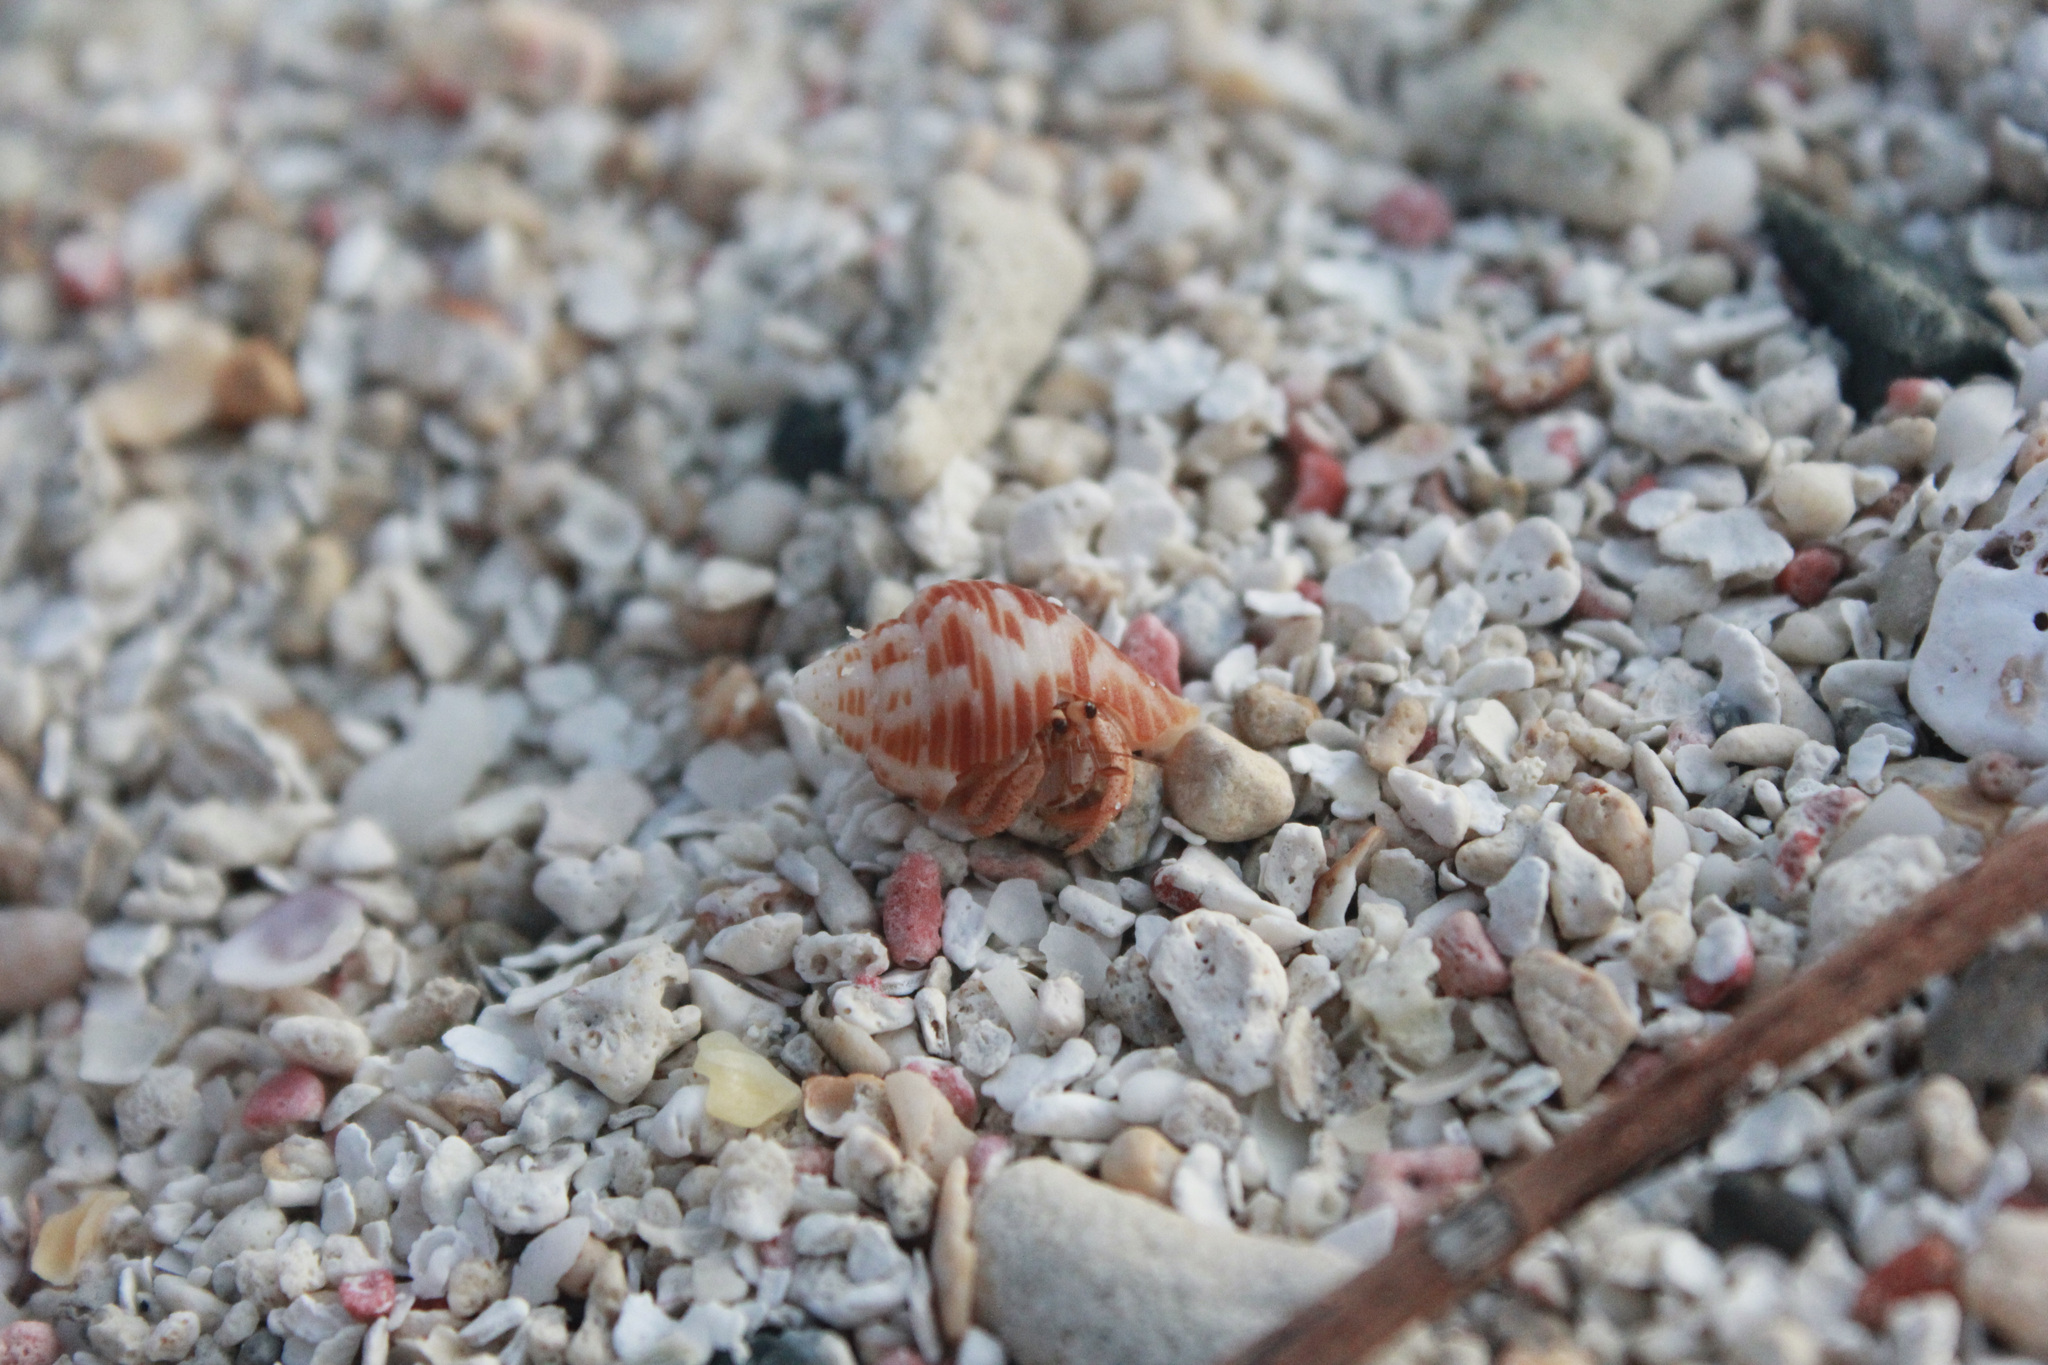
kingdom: Animalia
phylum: Arthropoda
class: Malacostraca
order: Decapoda
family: Coenobitidae
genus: Coenobita
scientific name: Coenobita clypeatus
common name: Caribbean hermit crab
